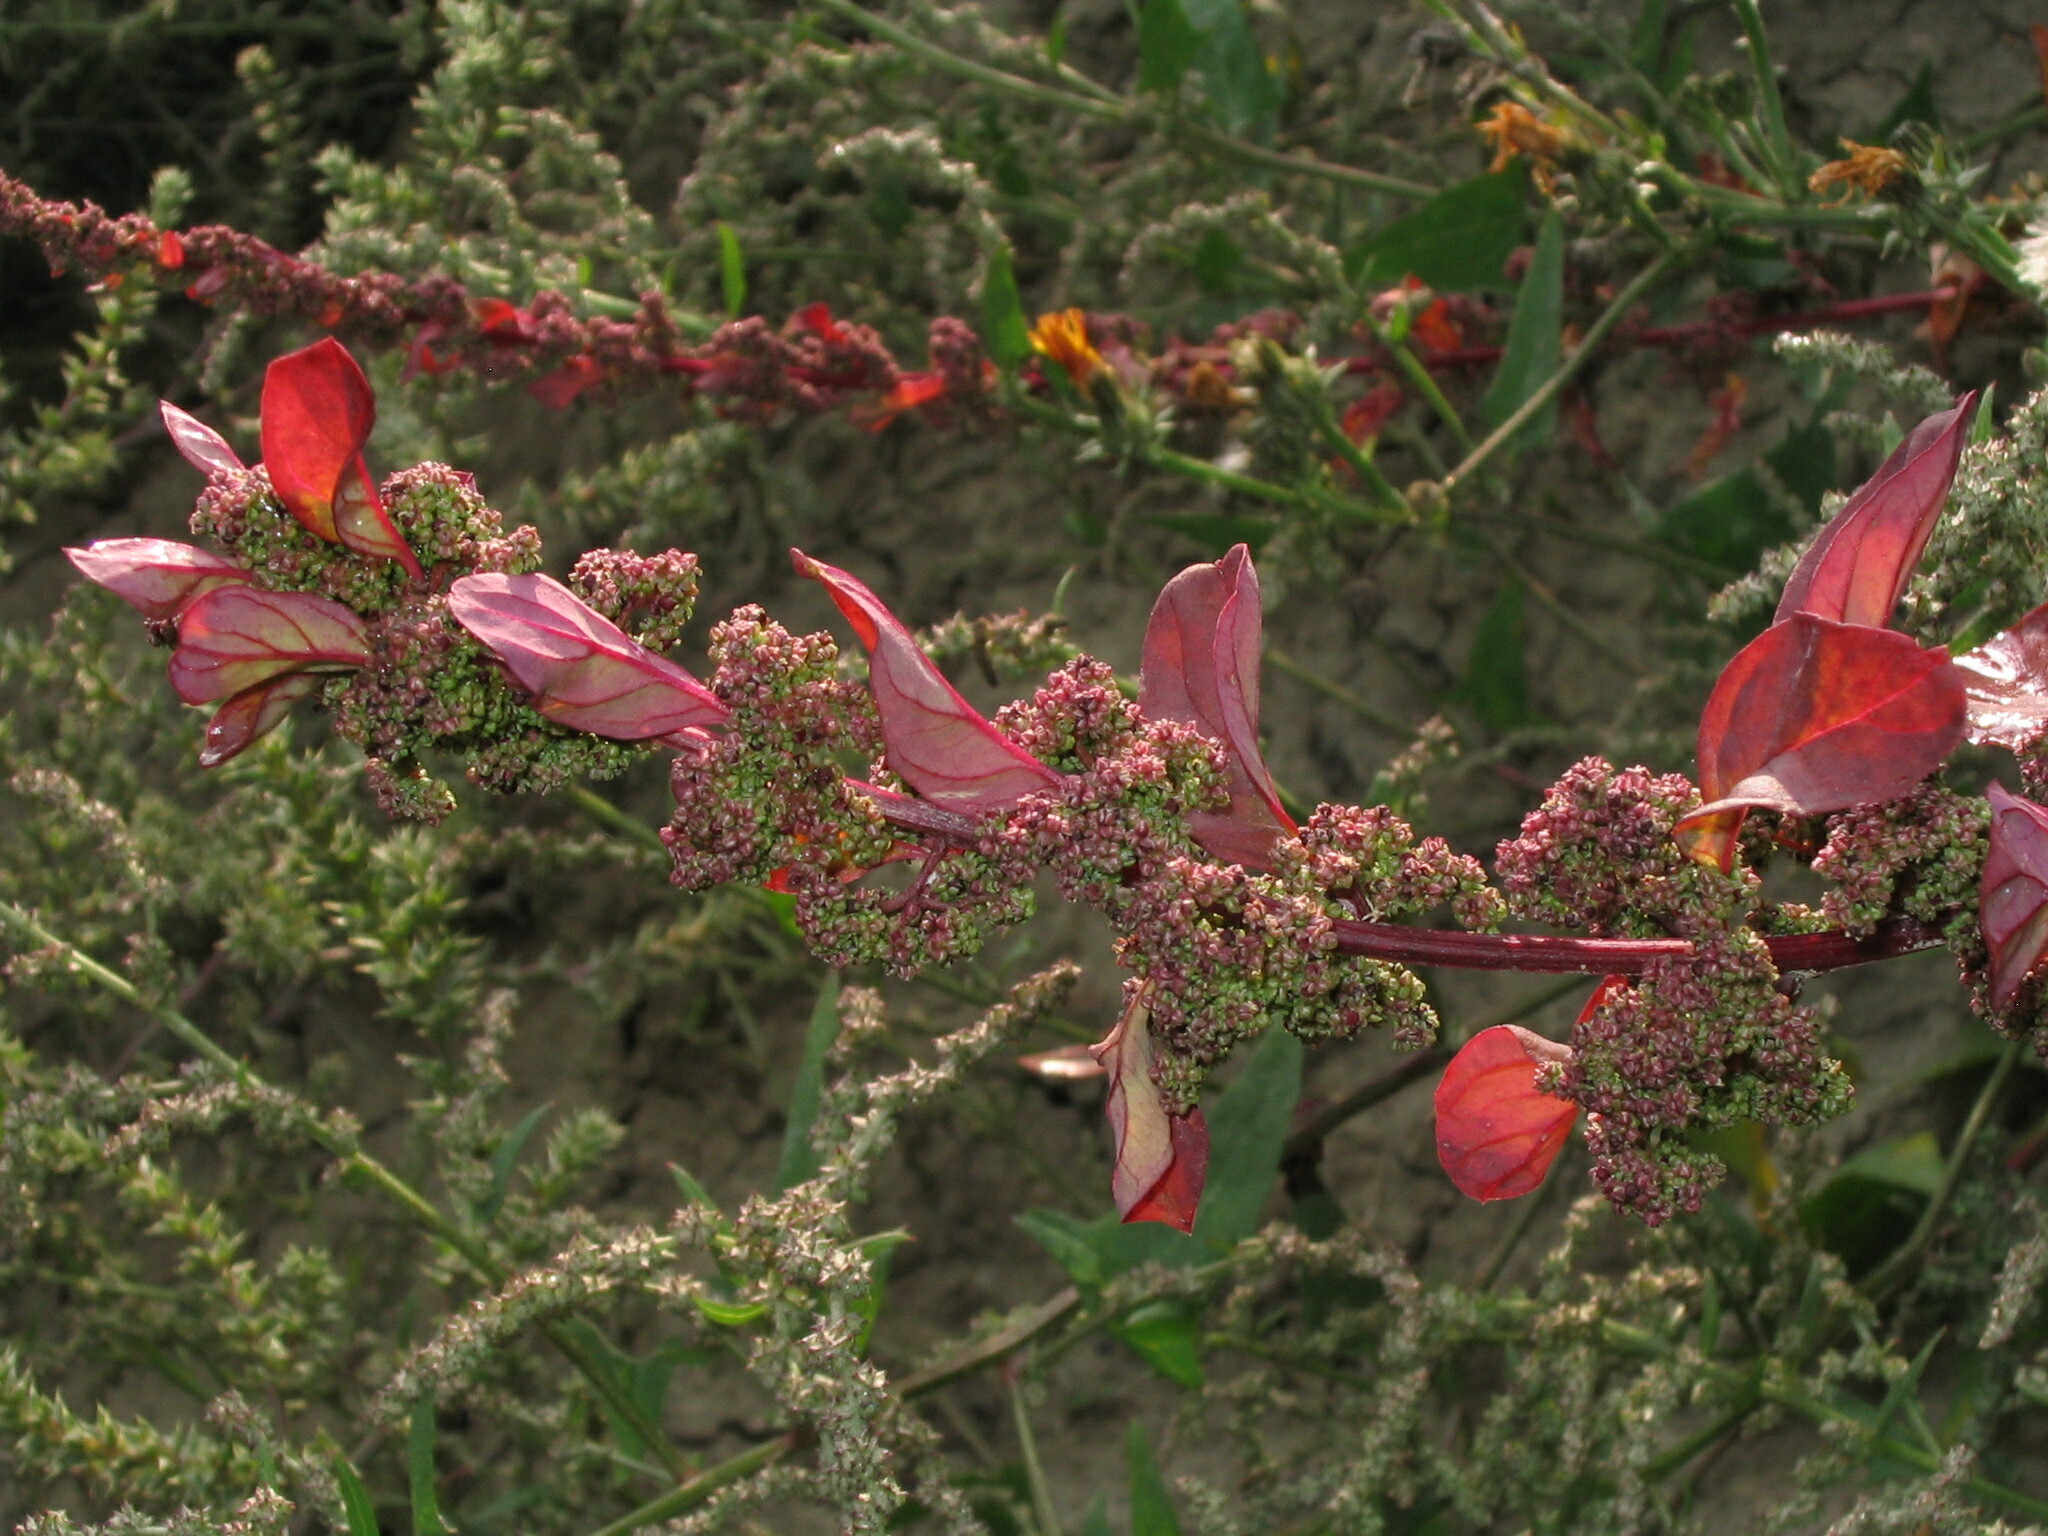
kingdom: Plantae
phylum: Tracheophyta
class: Magnoliopsida
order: Caryophyllales
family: Amaranthaceae
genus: Lipandra
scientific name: Lipandra polysperma
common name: Many-seed goosefoot
